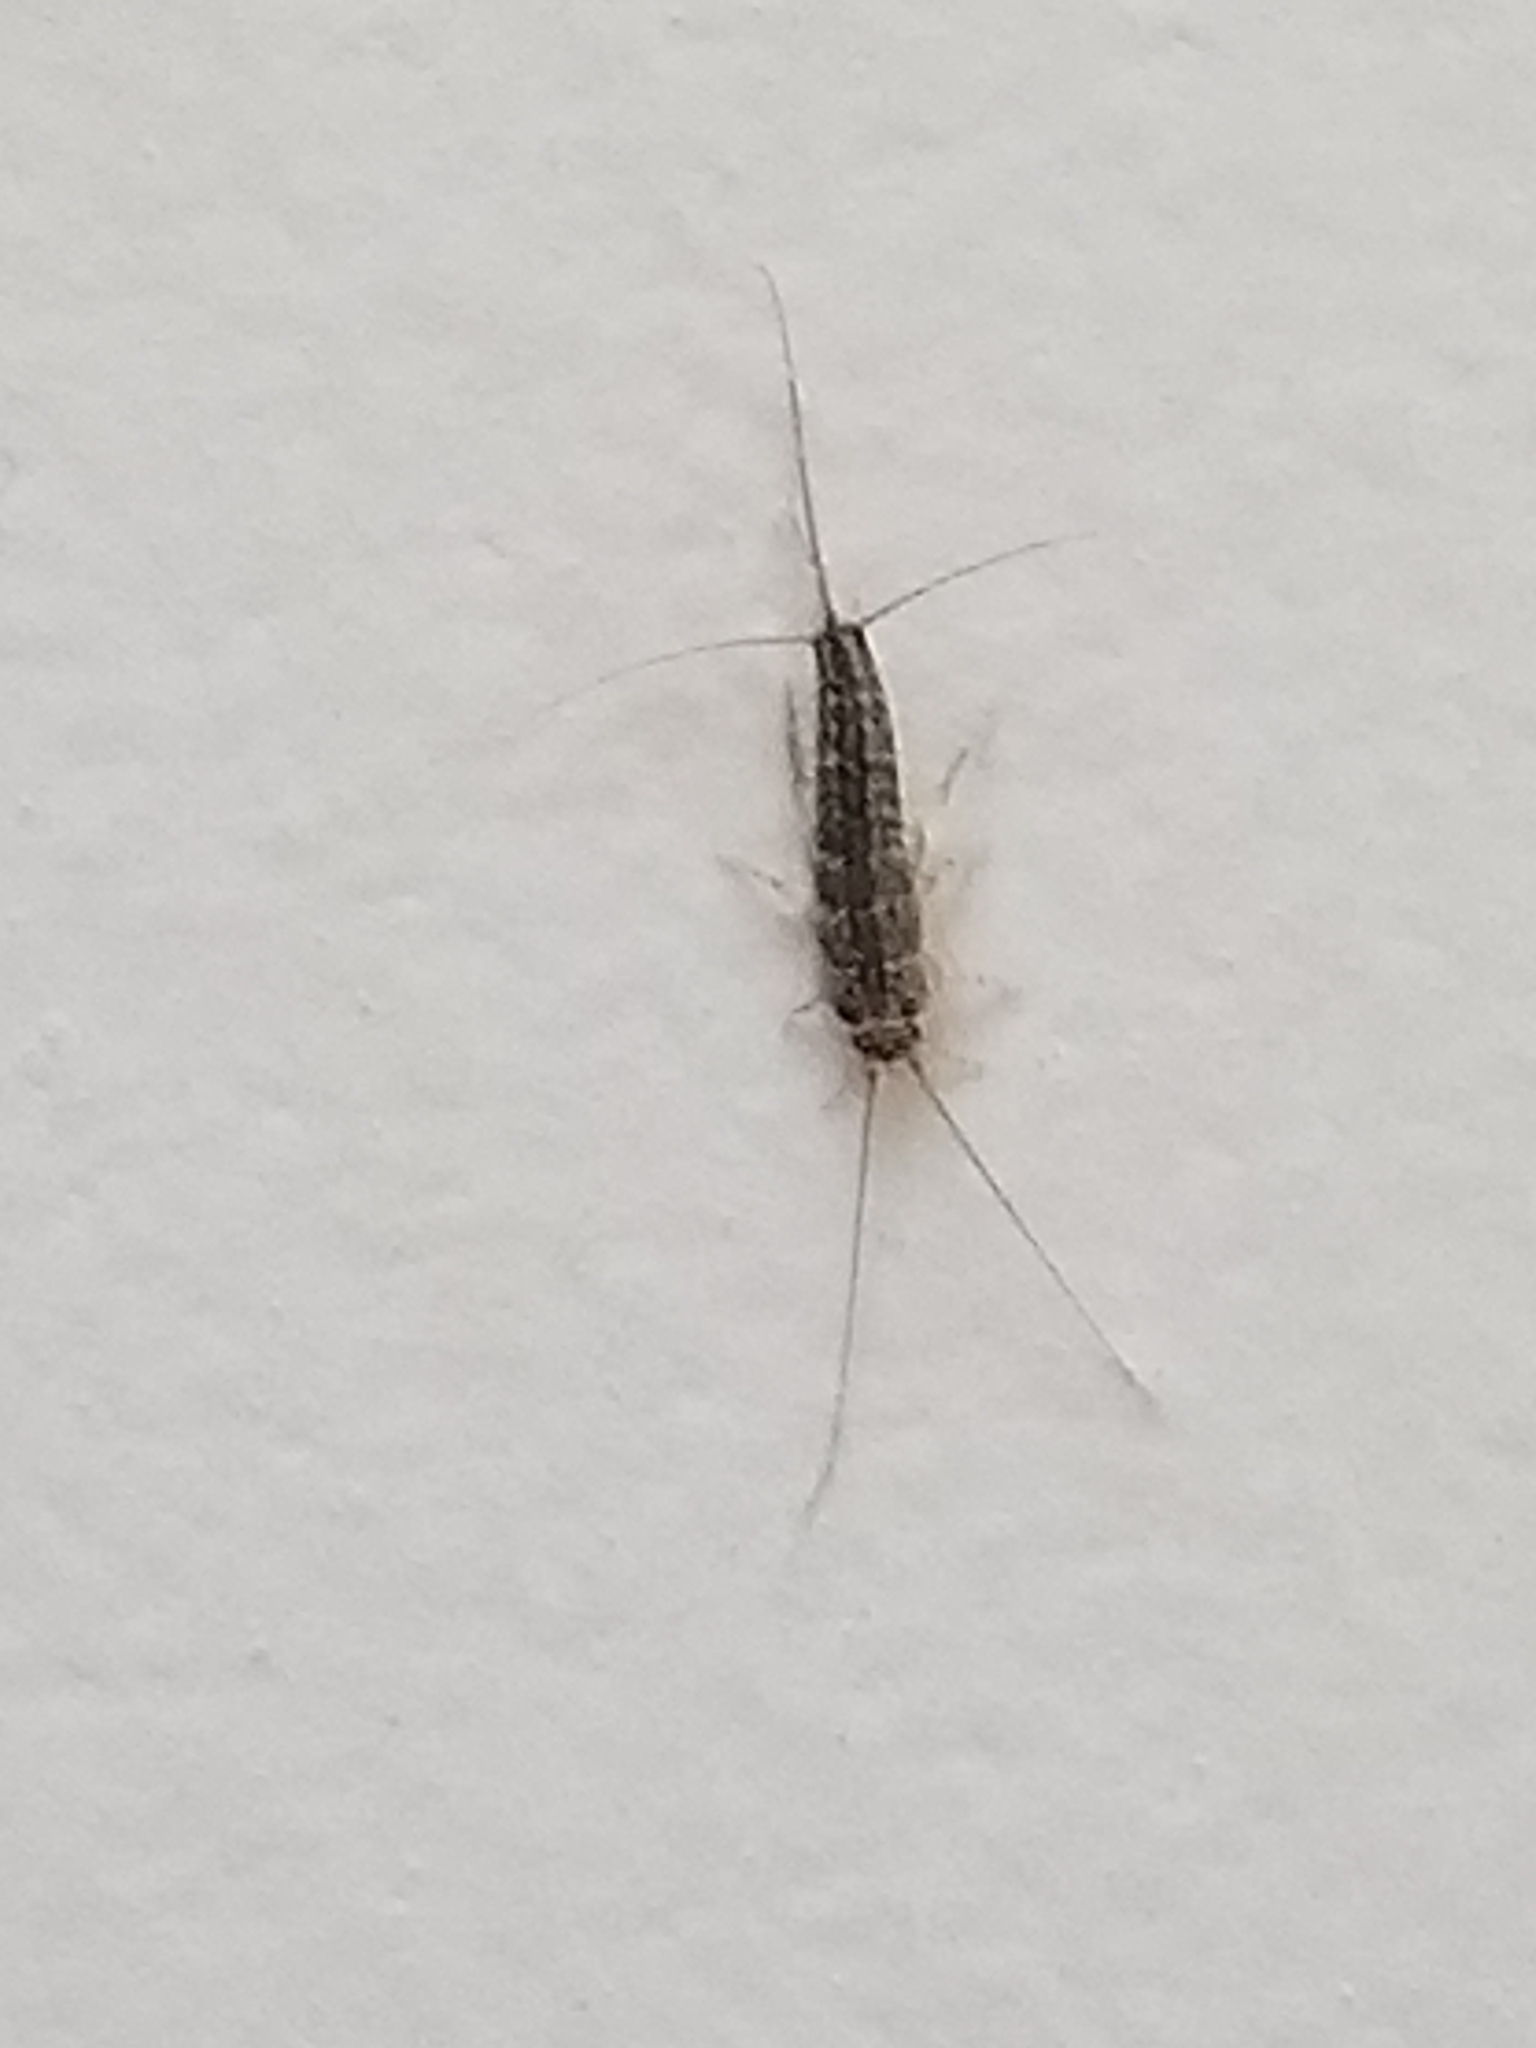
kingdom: Animalia
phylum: Arthropoda
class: Insecta
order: Zygentoma
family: Lepismatidae
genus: Ctenolepisma
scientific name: Ctenolepisma lineata
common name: Four-lined silverfish
